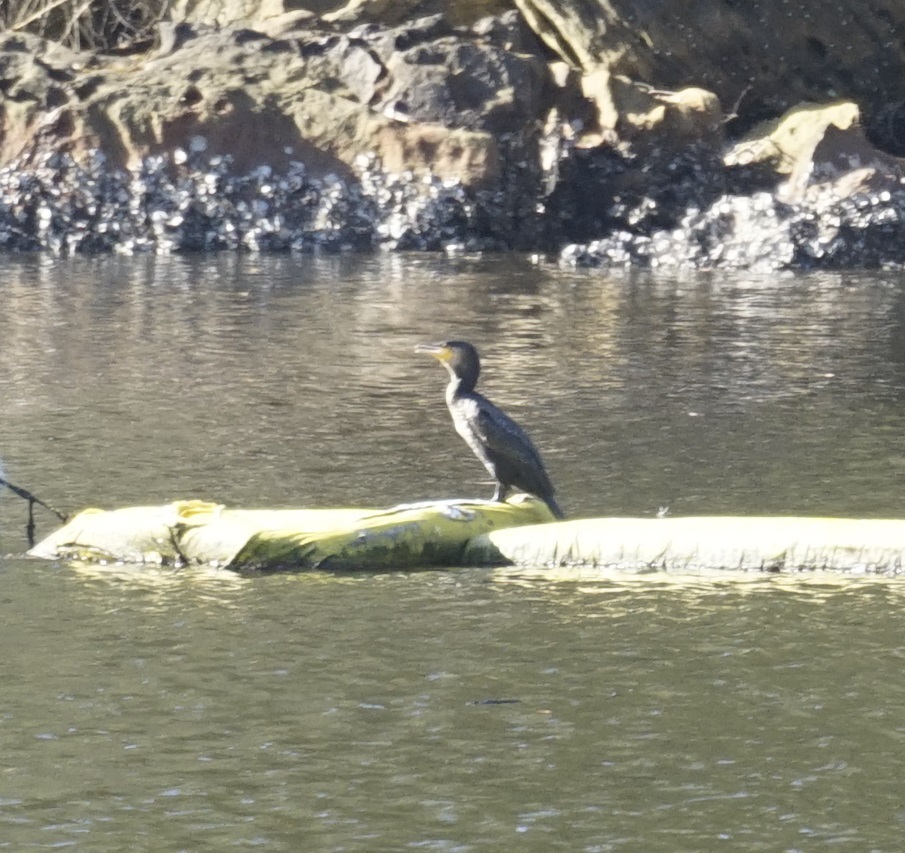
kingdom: Animalia
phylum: Chordata
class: Aves
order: Suliformes
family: Phalacrocoracidae
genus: Phalacrocorax
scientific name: Phalacrocorax carbo
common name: Great cormorant
